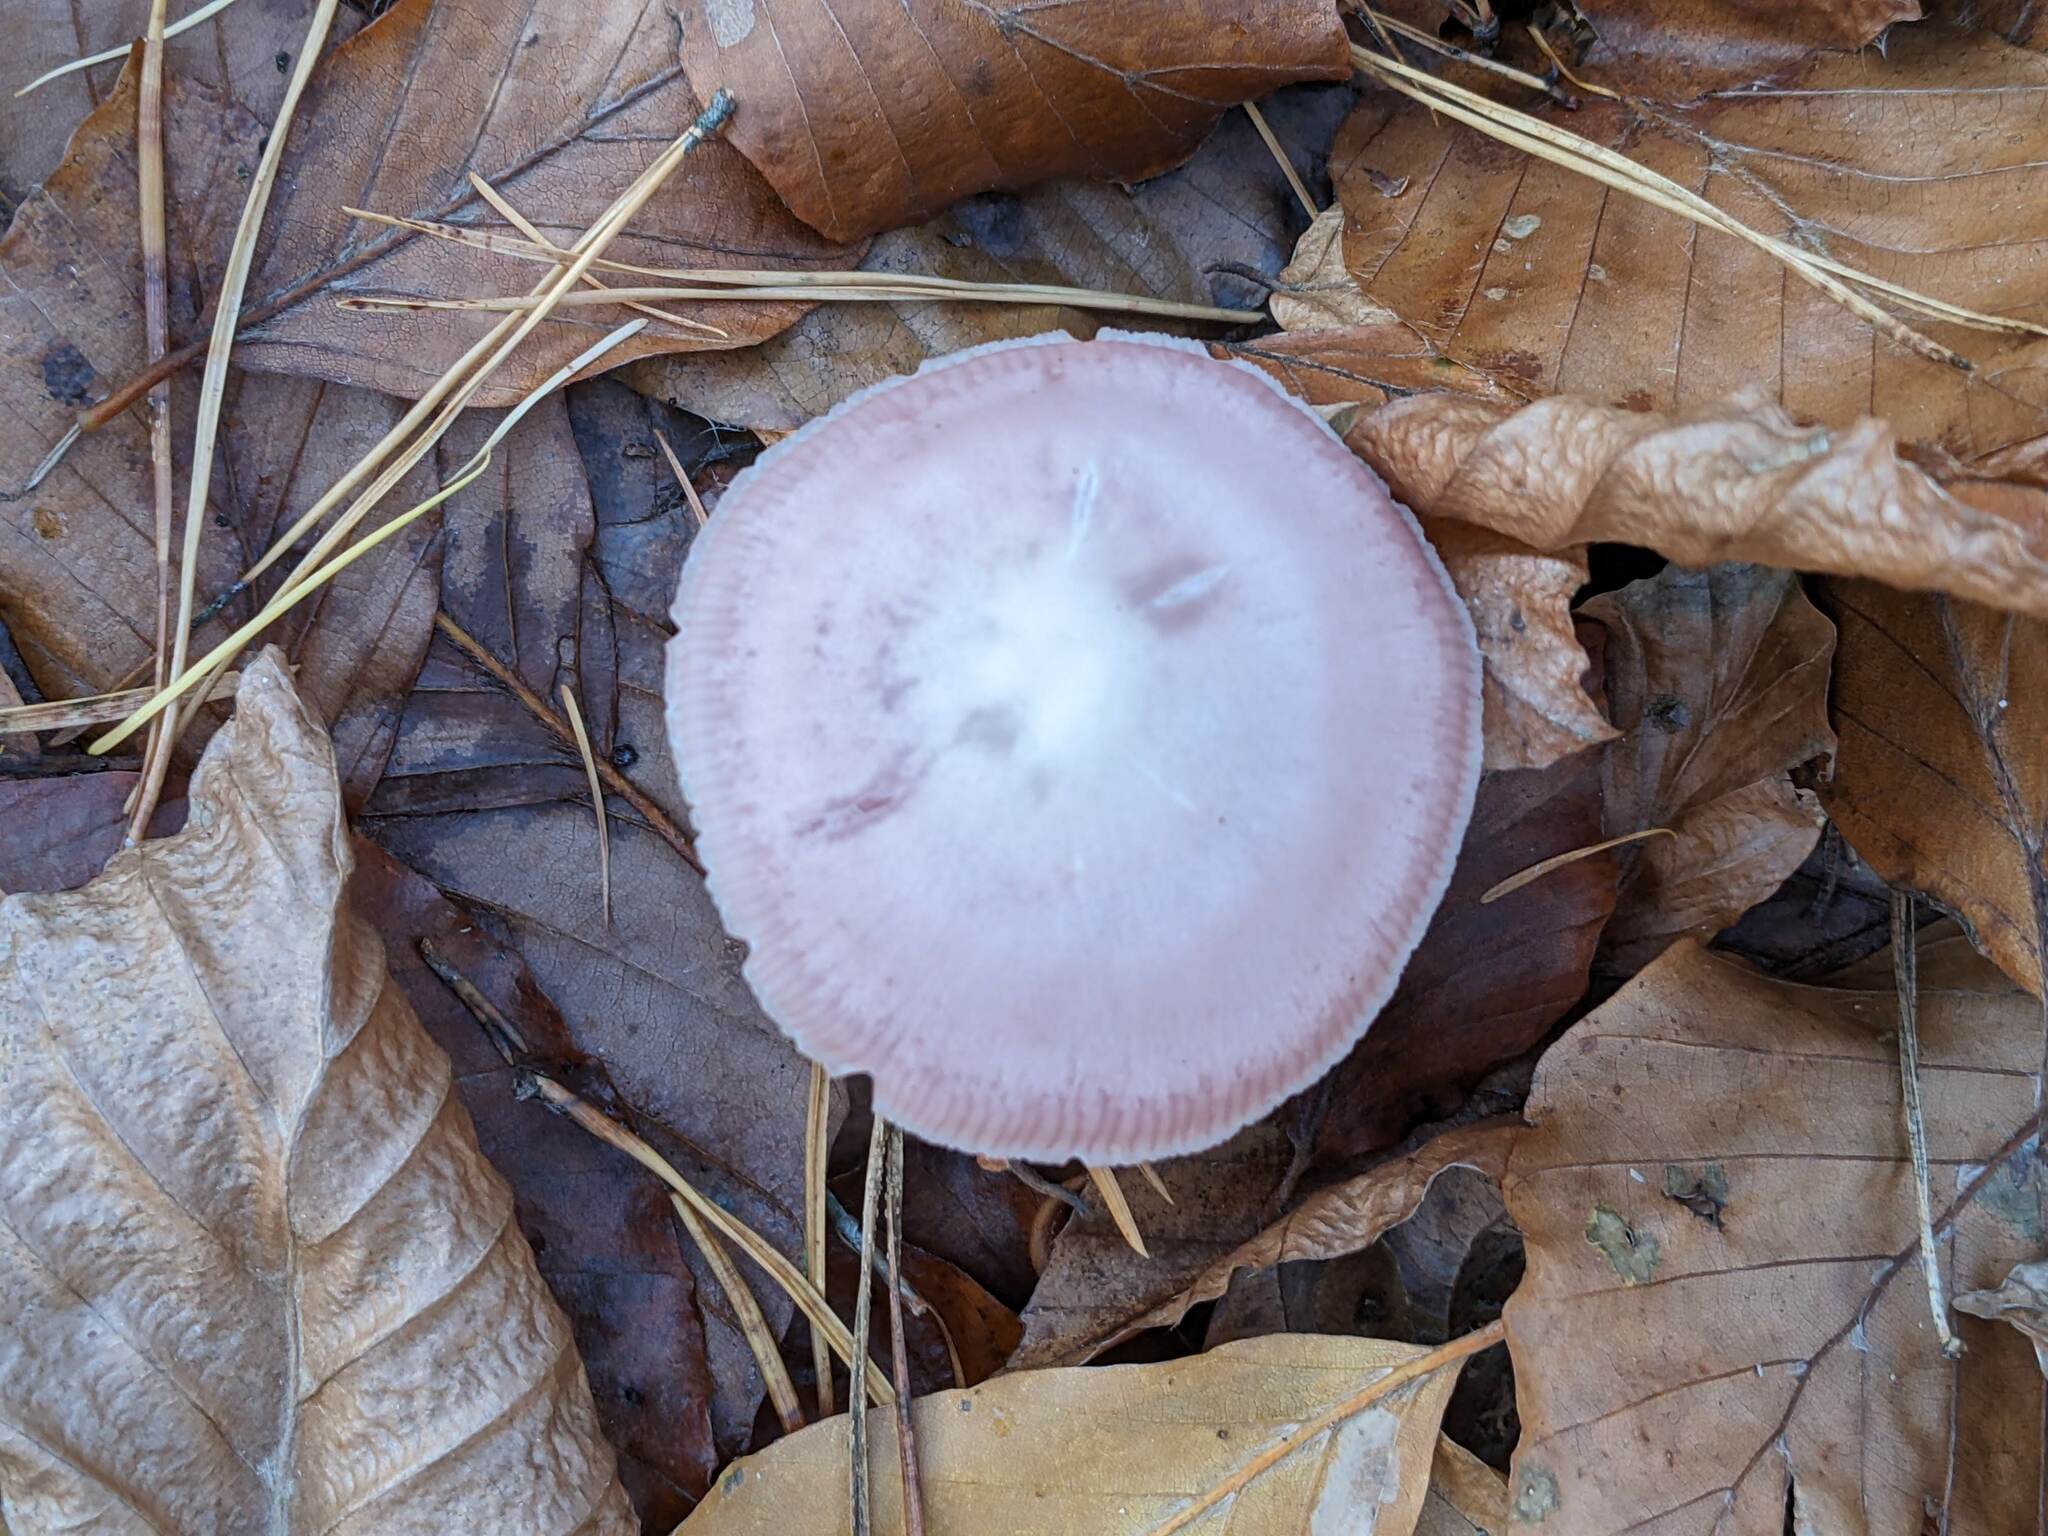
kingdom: Fungi
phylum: Basidiomycota
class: Agaricomycetes
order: Agaricales
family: Mycenaceae
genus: Mycena
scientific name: Mycena rosea
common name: Rosy bonnet
